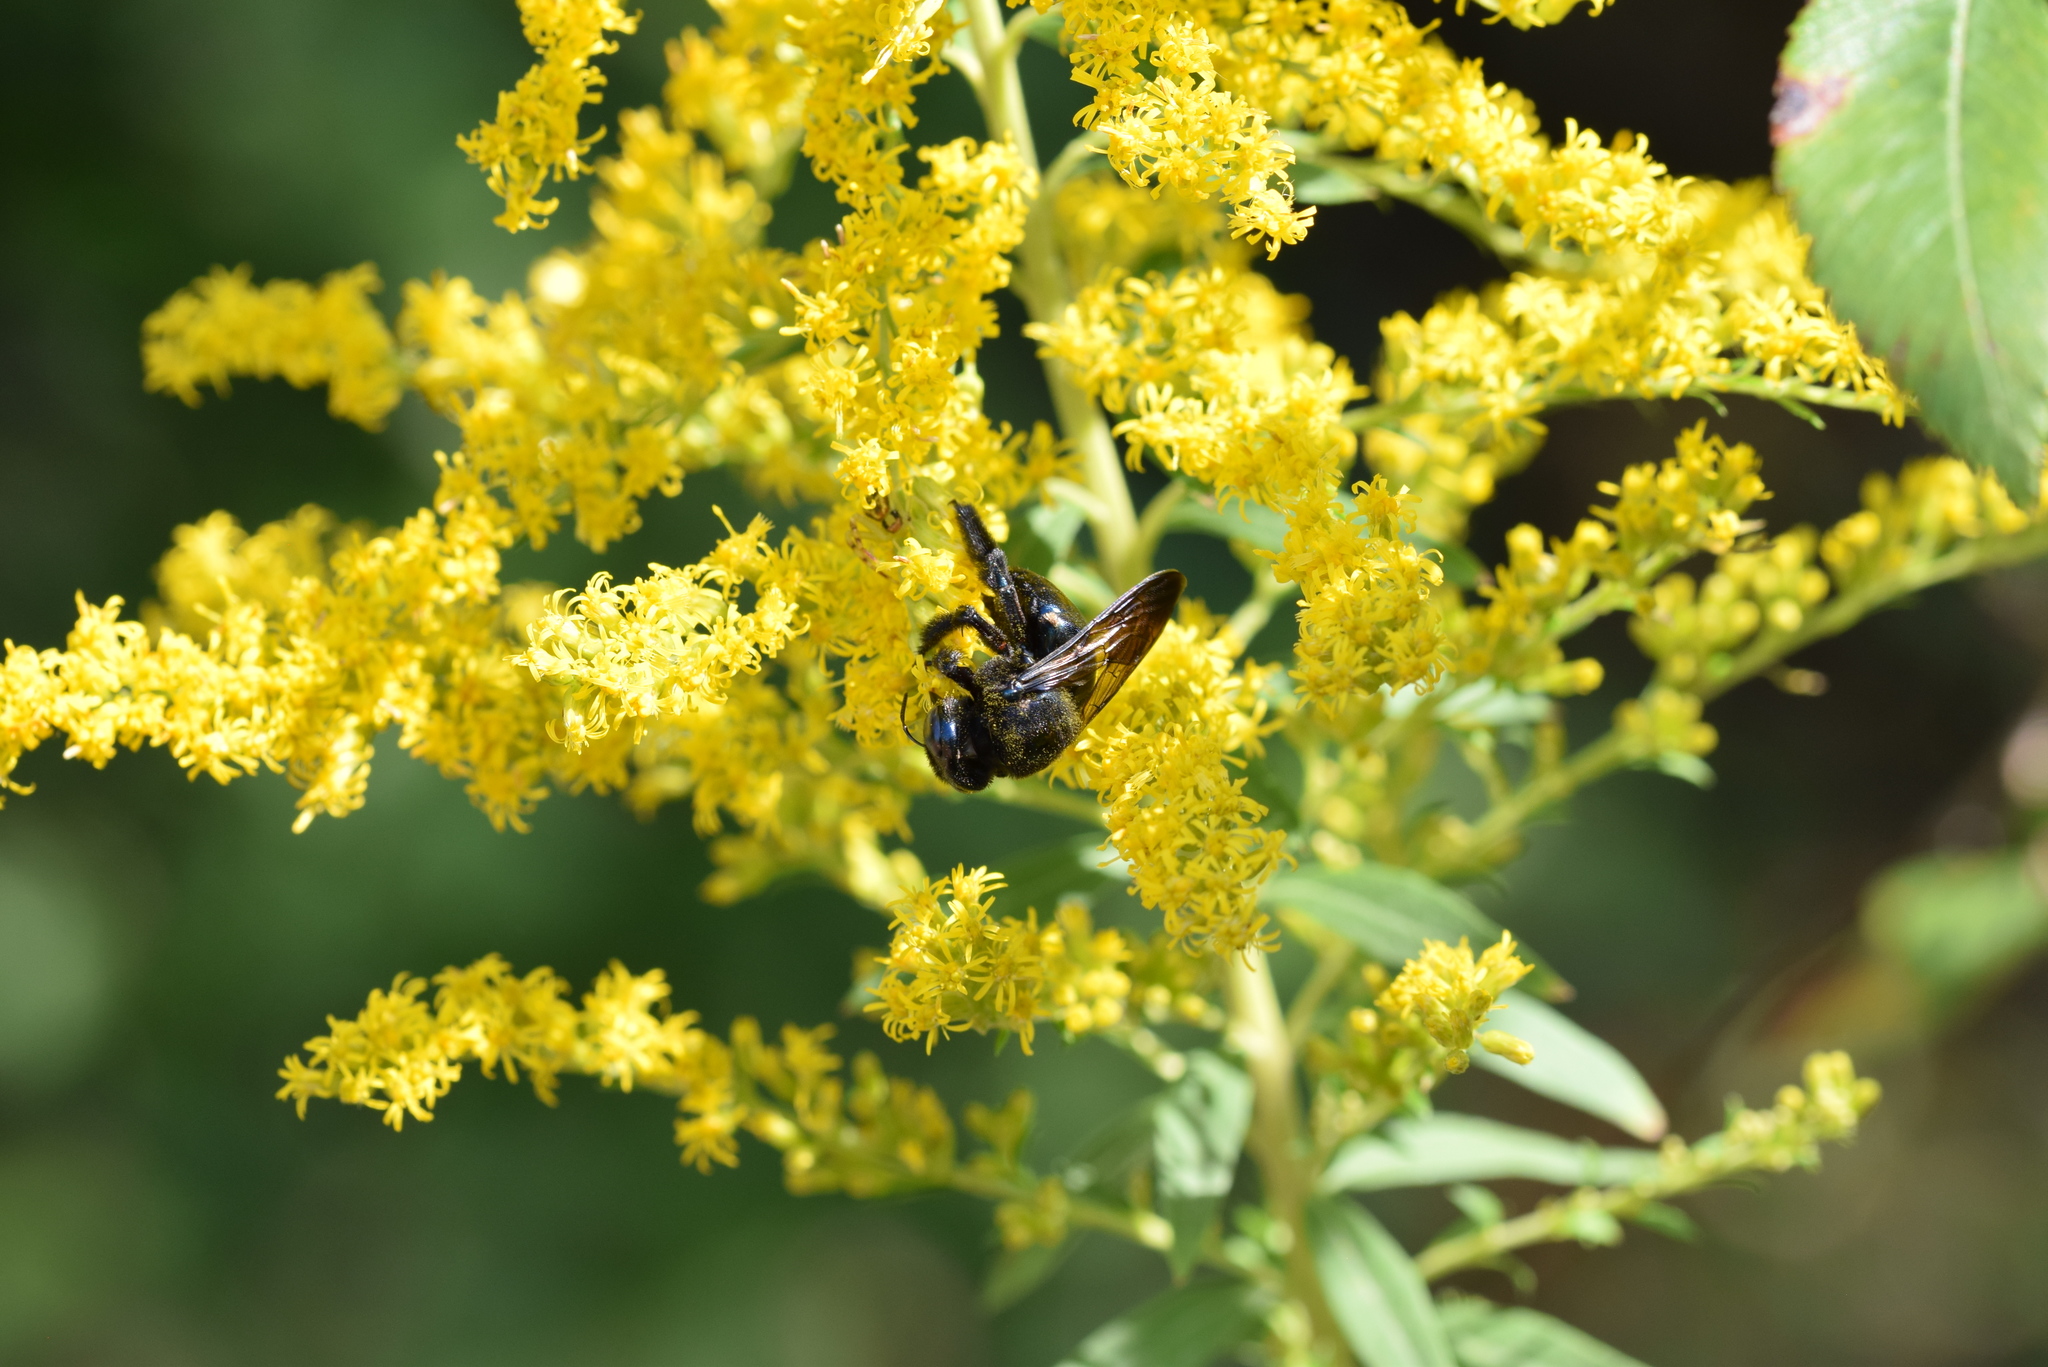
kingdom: Animalia
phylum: Arthropoda
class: Insecta
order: Hymenoptera
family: Apidae
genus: Xylocopa
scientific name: Xylocopa micans
